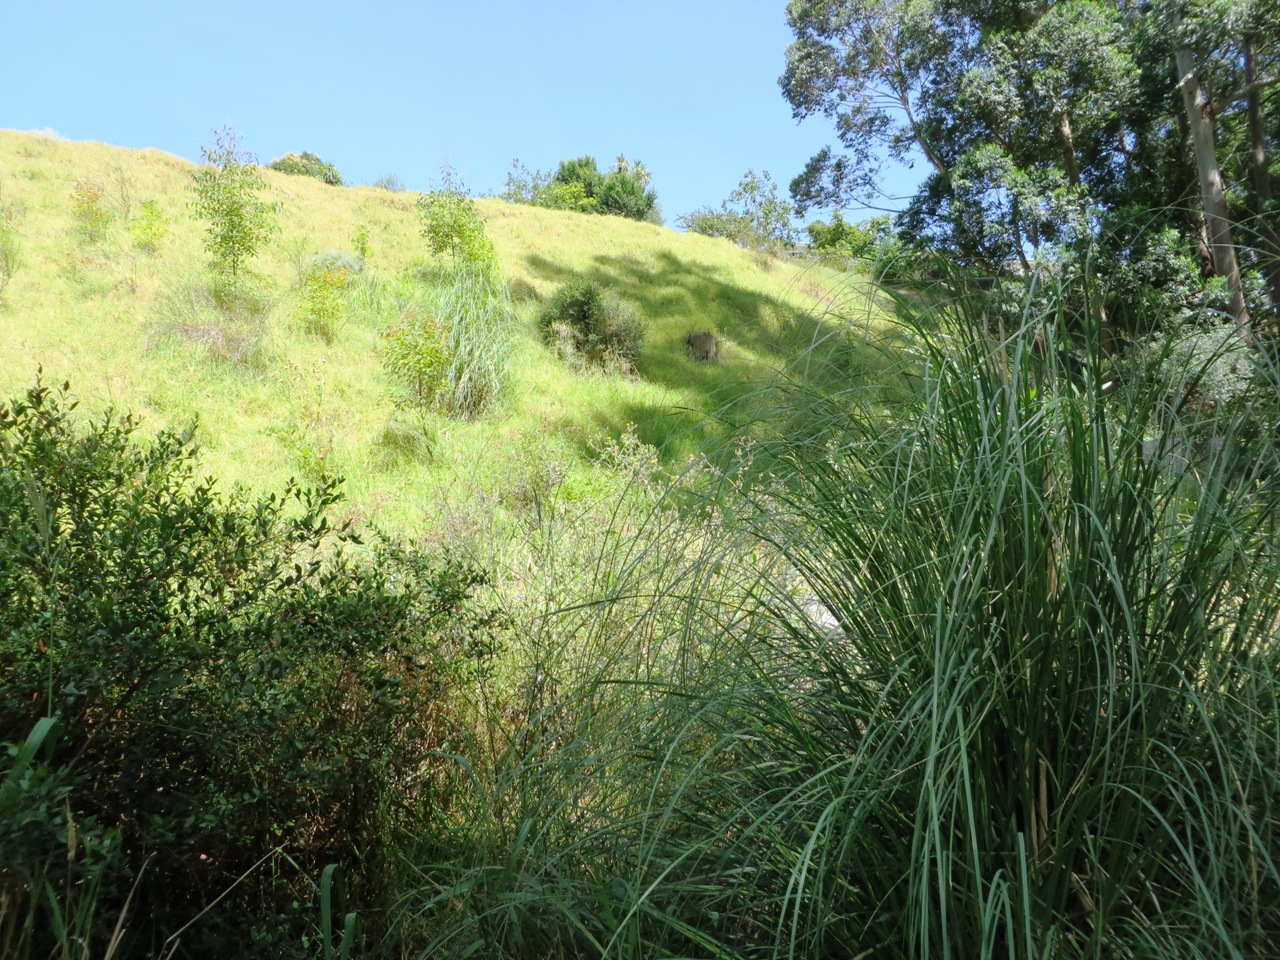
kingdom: Plantae
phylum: Tracheophyta
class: Liliopsida
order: Poales
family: Poaceae
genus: Cortaderia
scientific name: Cortaderia selloana
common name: Uruguayan pampas grass
